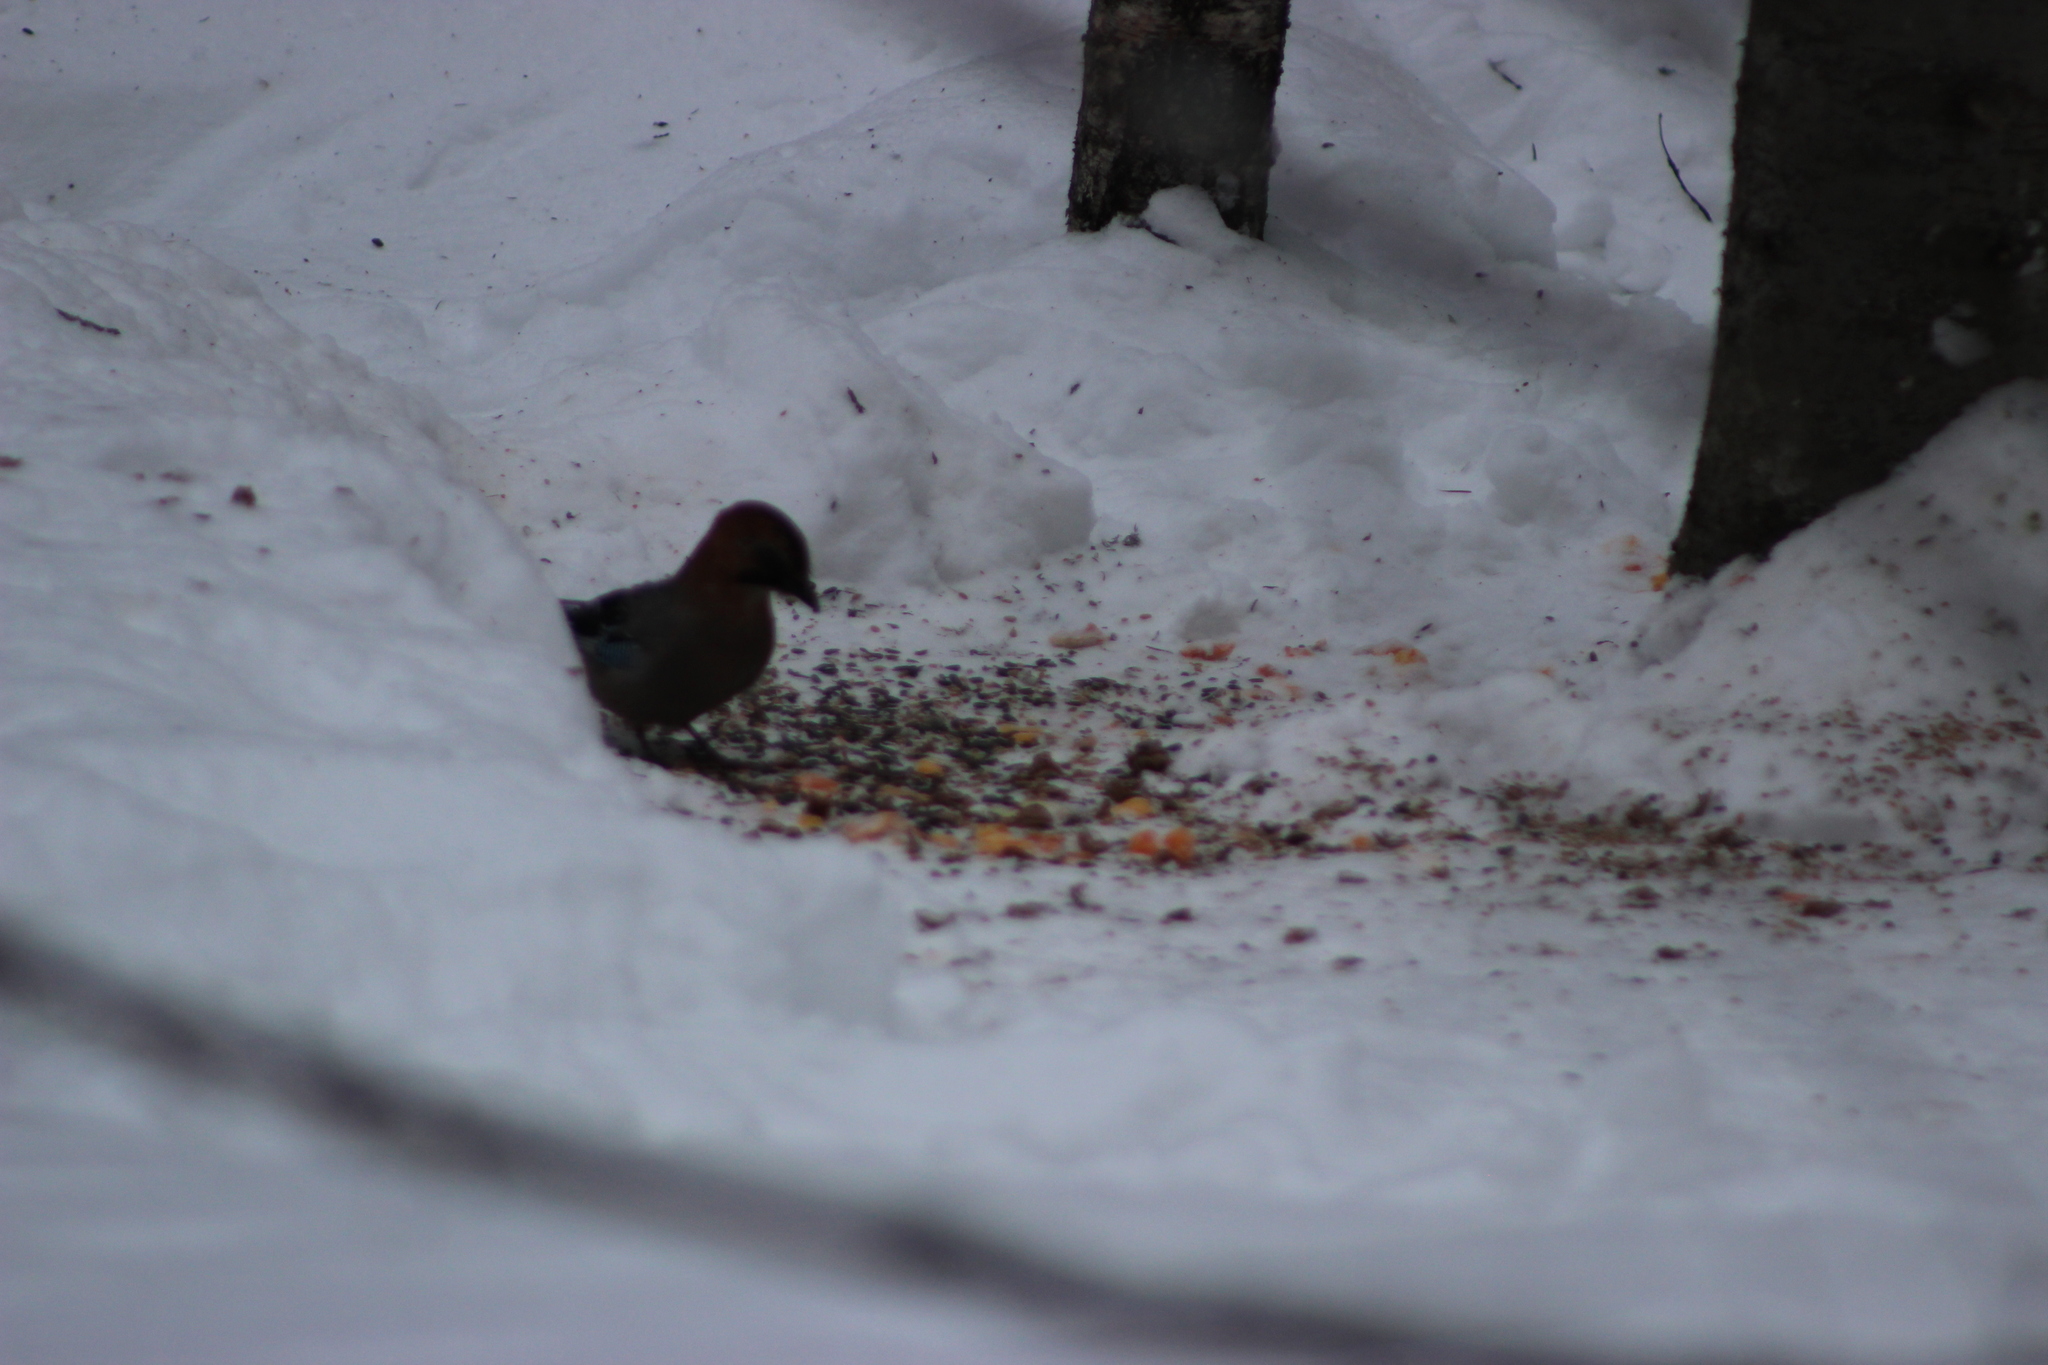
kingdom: Animalia
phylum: Chordata
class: Aves
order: Passeriformes
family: Corvidae
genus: Garrulus
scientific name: Garrulus glandarius
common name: Eurasian jay
